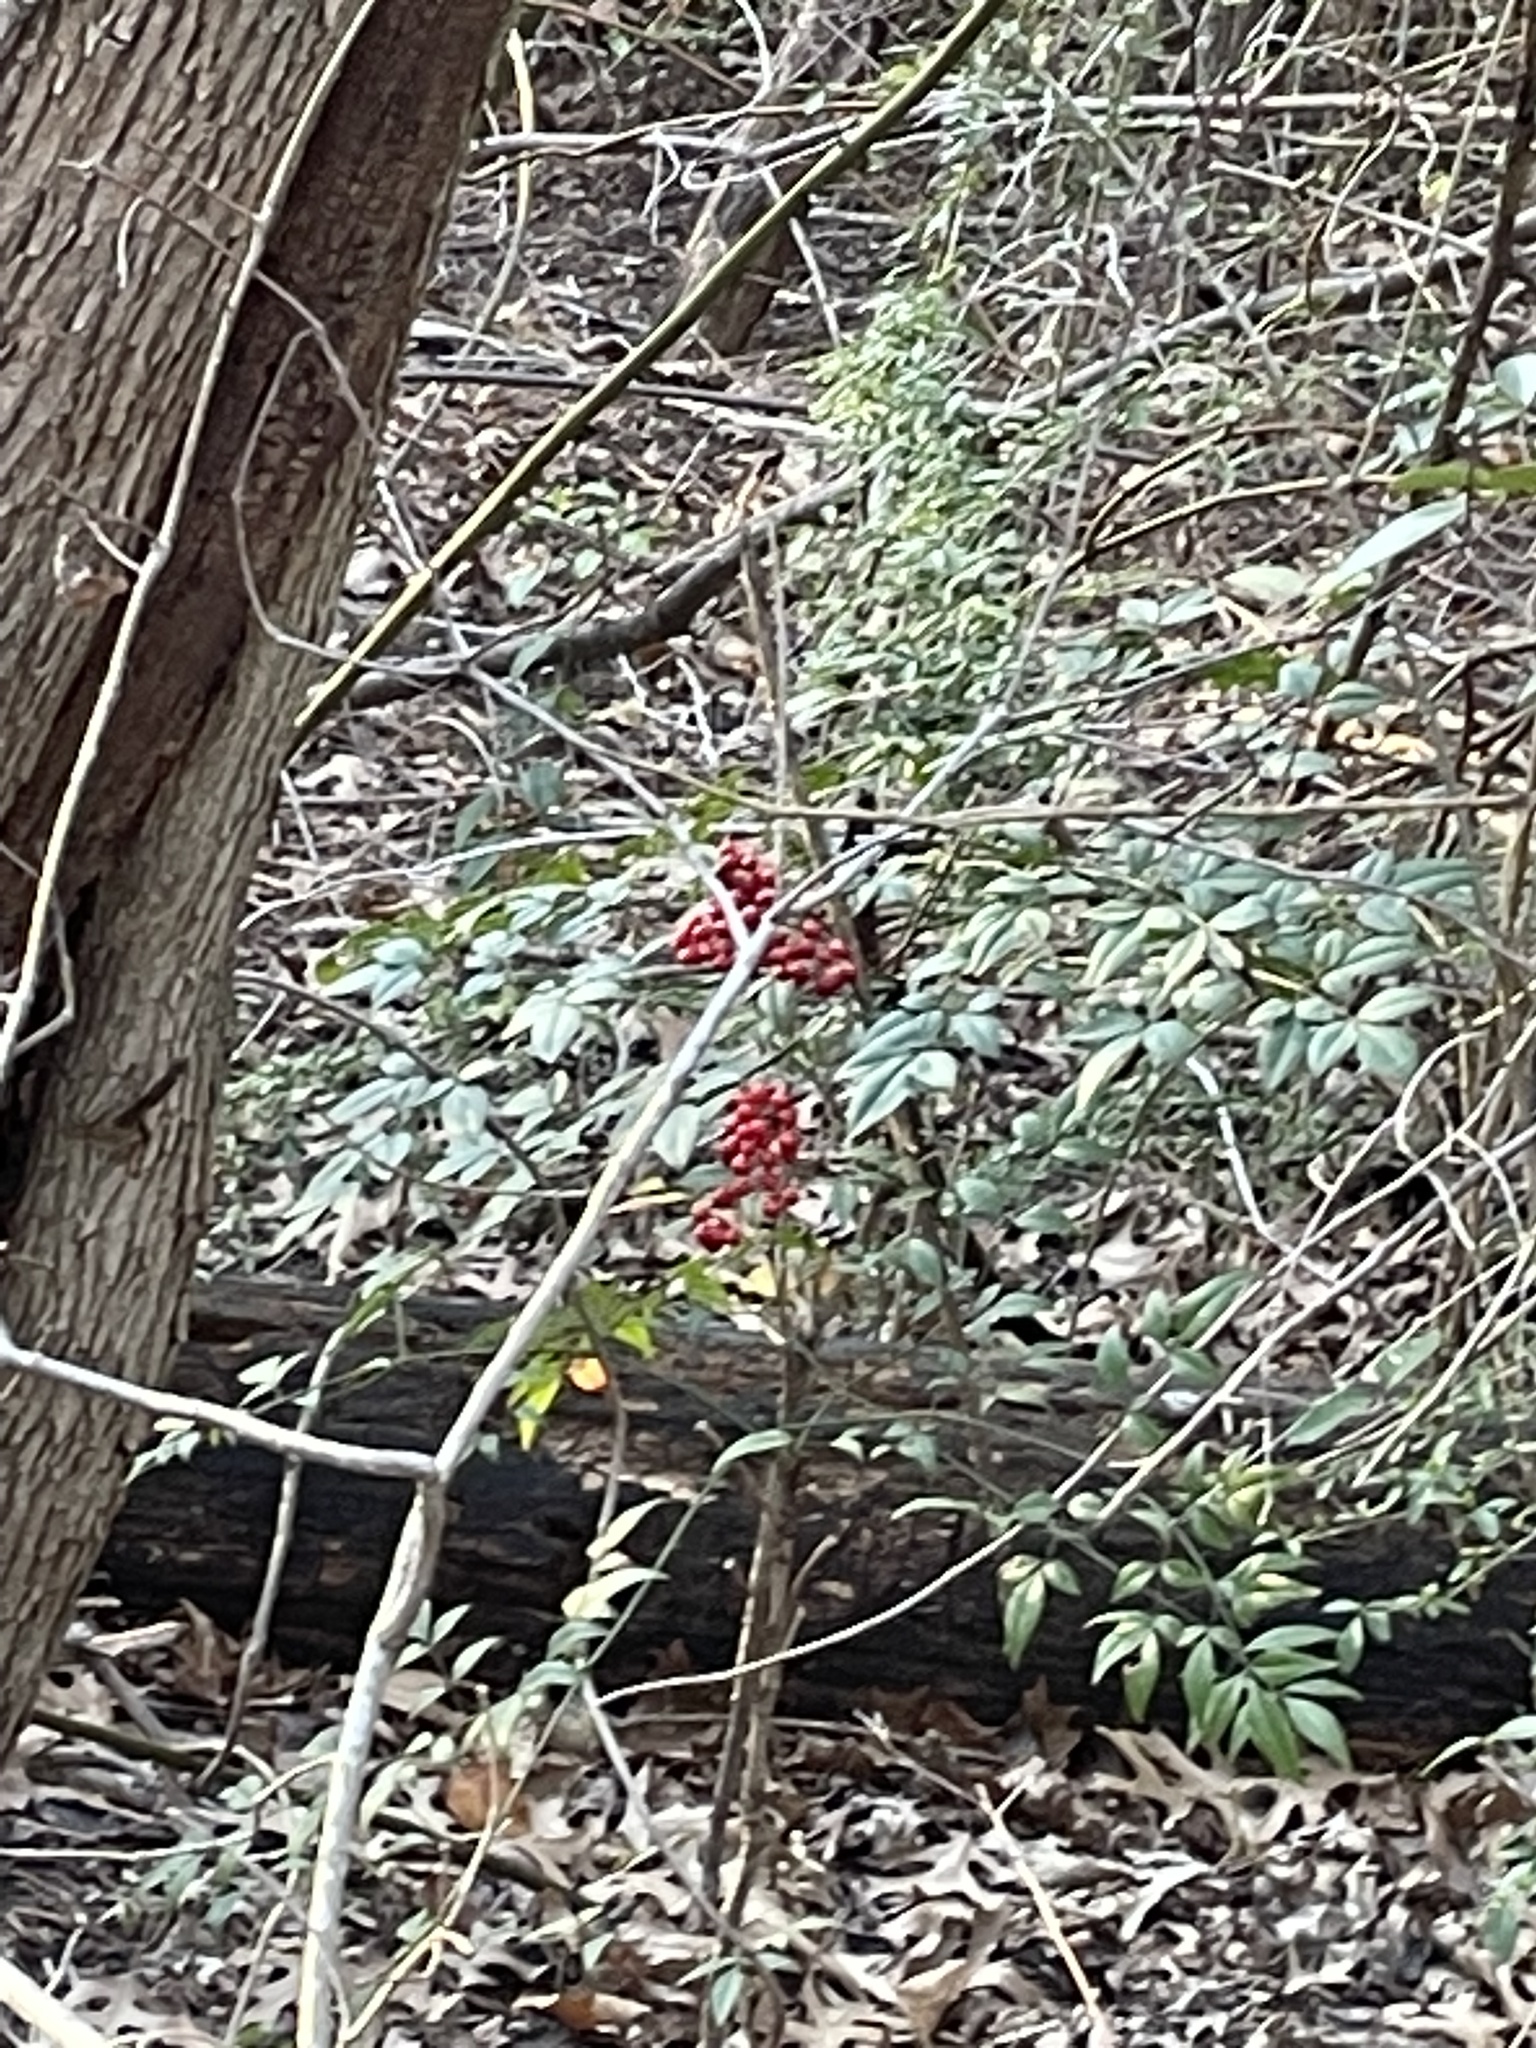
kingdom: Plantae
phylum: Tracheophyta
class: Magnoliopsida
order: Ranunculales
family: Berberidaceae
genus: Nandina
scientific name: Nandina domestica
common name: Sacred bamboo
